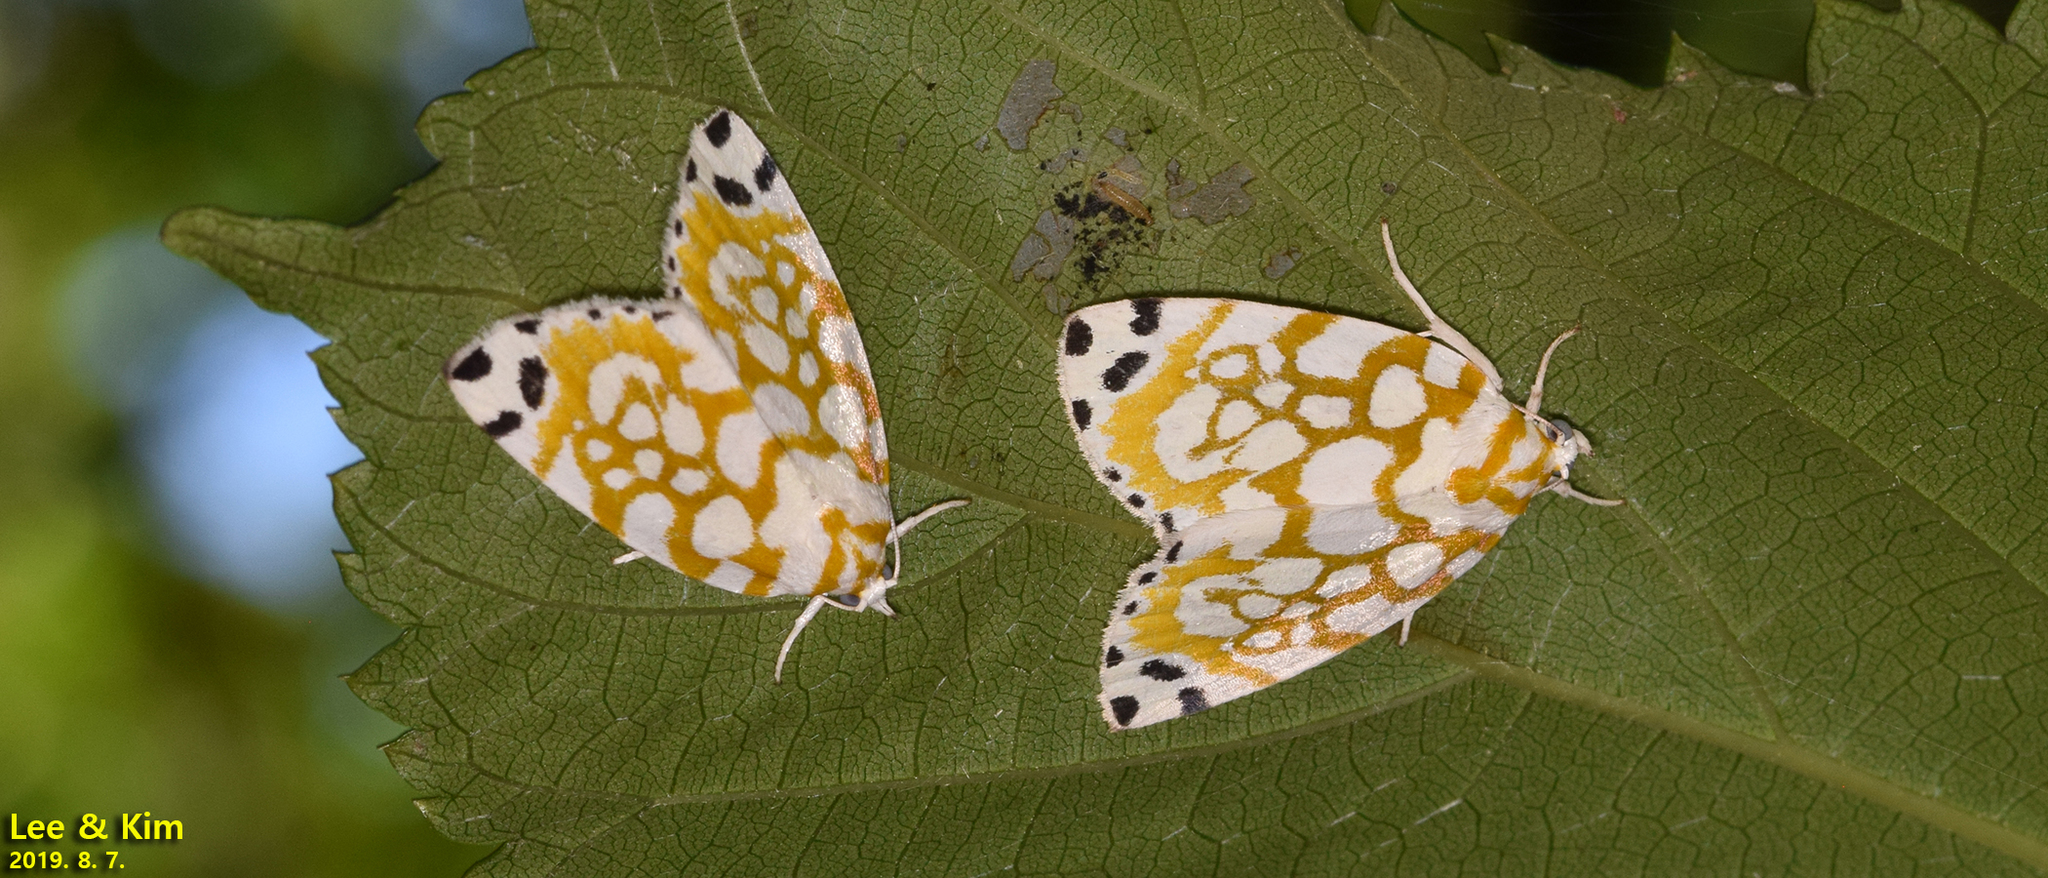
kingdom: Animalia
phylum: Arthropoda
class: Insecta
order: Lepidoptera
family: Nolidae
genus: Sinna
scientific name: Sinna extrema
